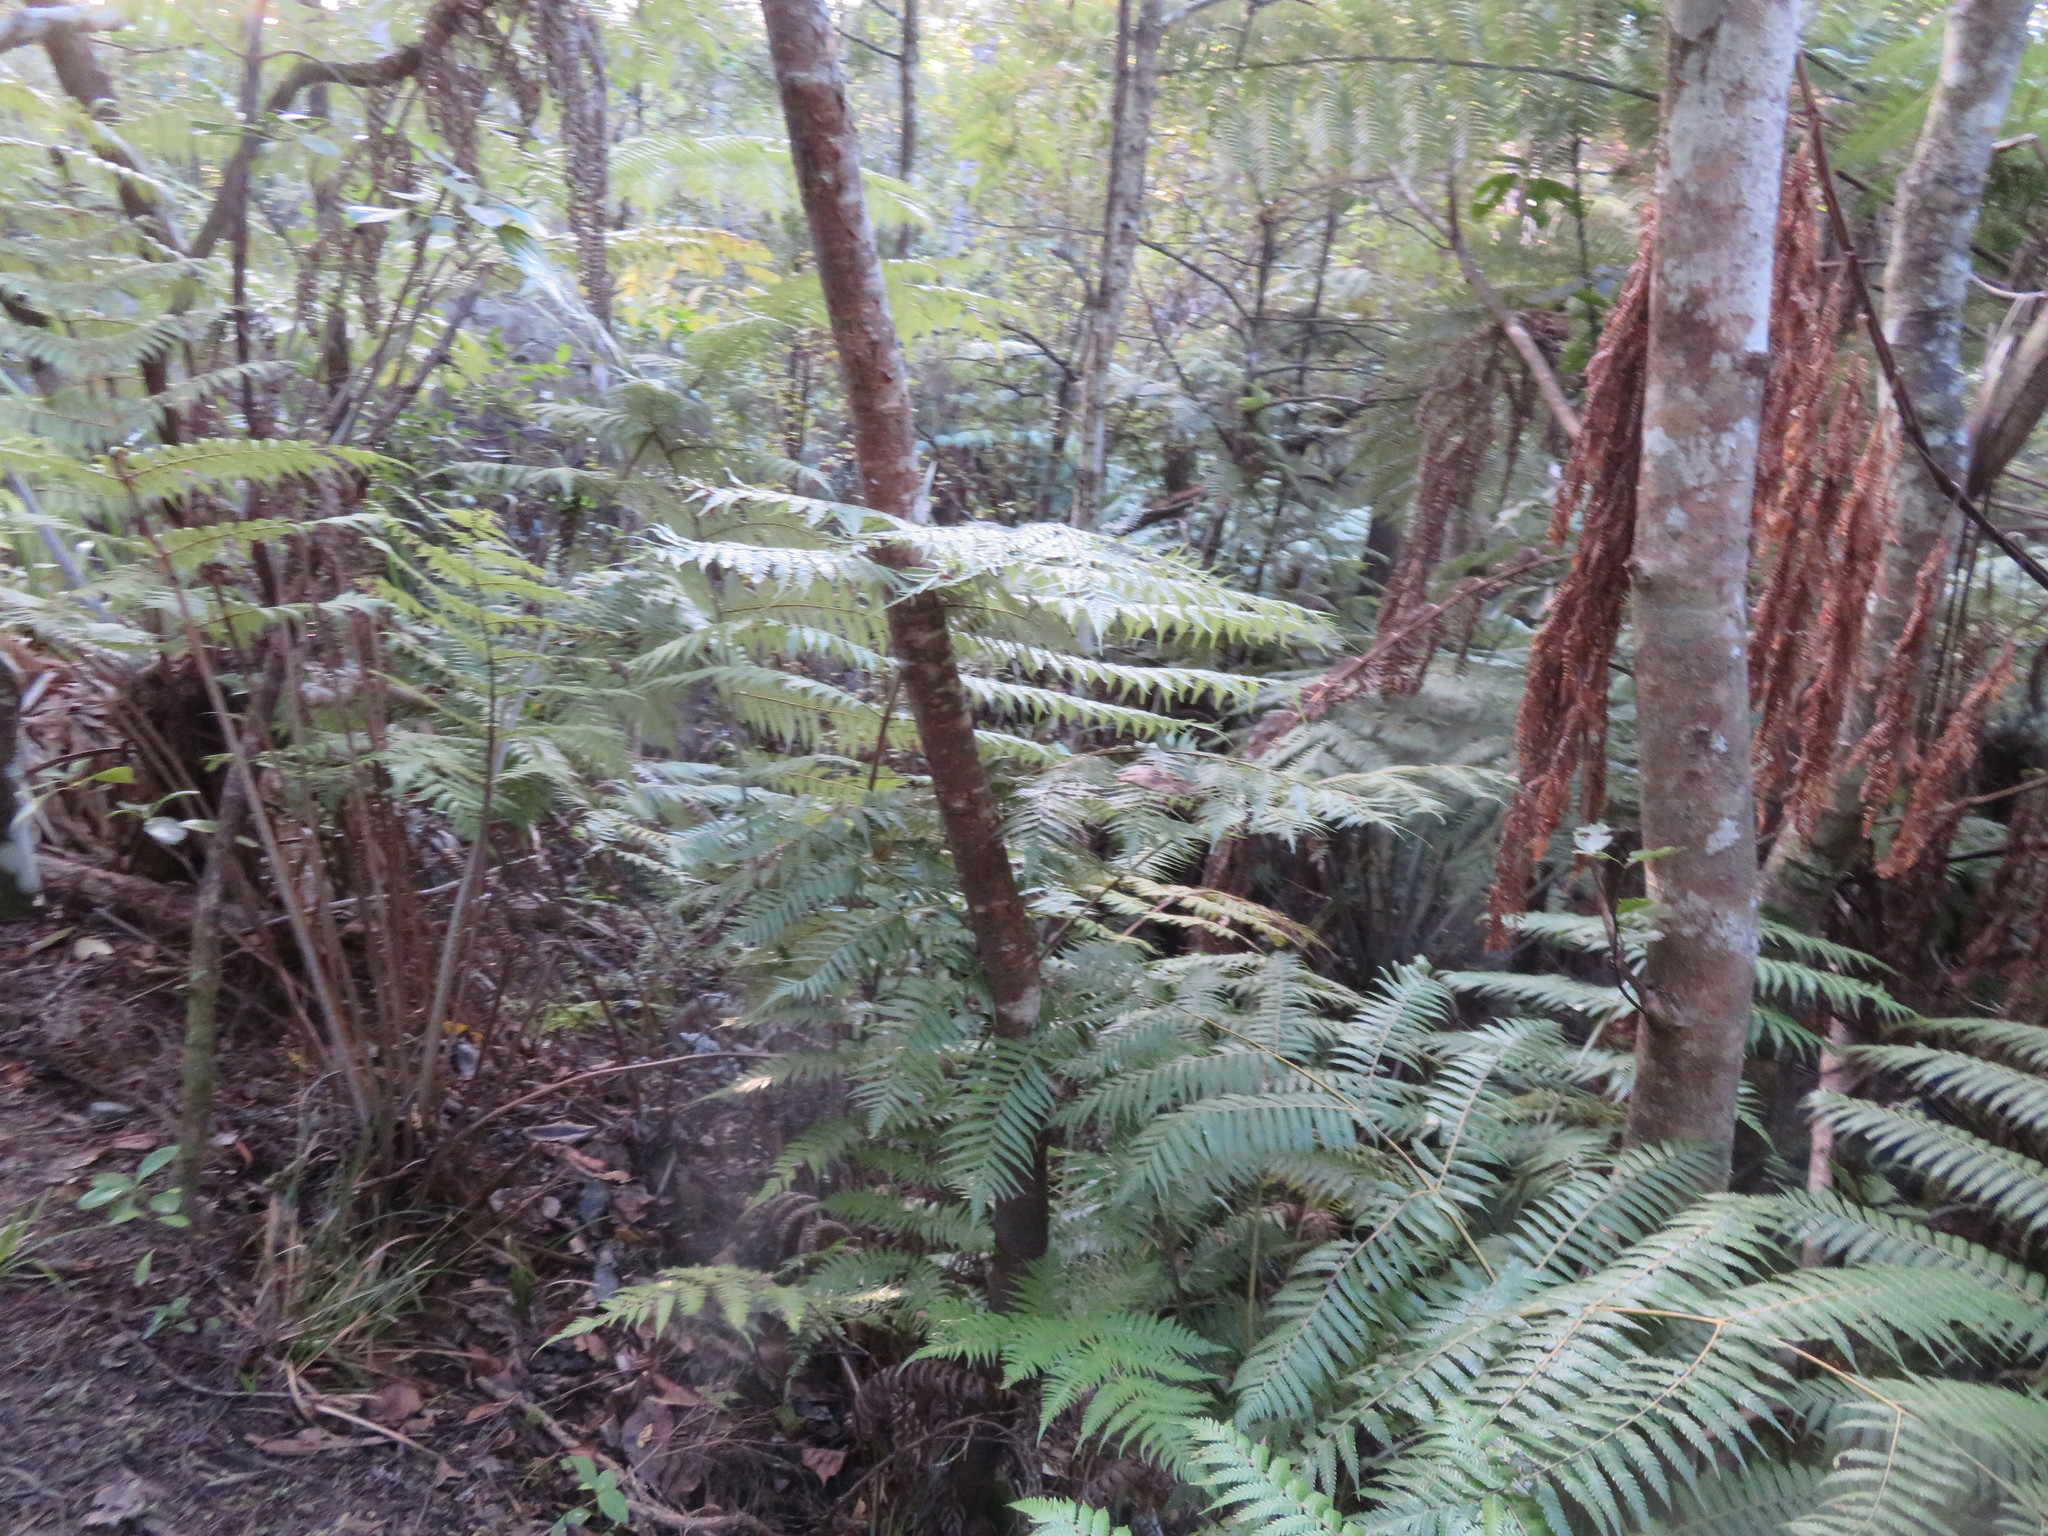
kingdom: Plantae
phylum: Tracheophyta
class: Polypodiopsida
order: Cyatheales
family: Cyatheaceae
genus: Alsophila
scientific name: Alsophila dealbata
